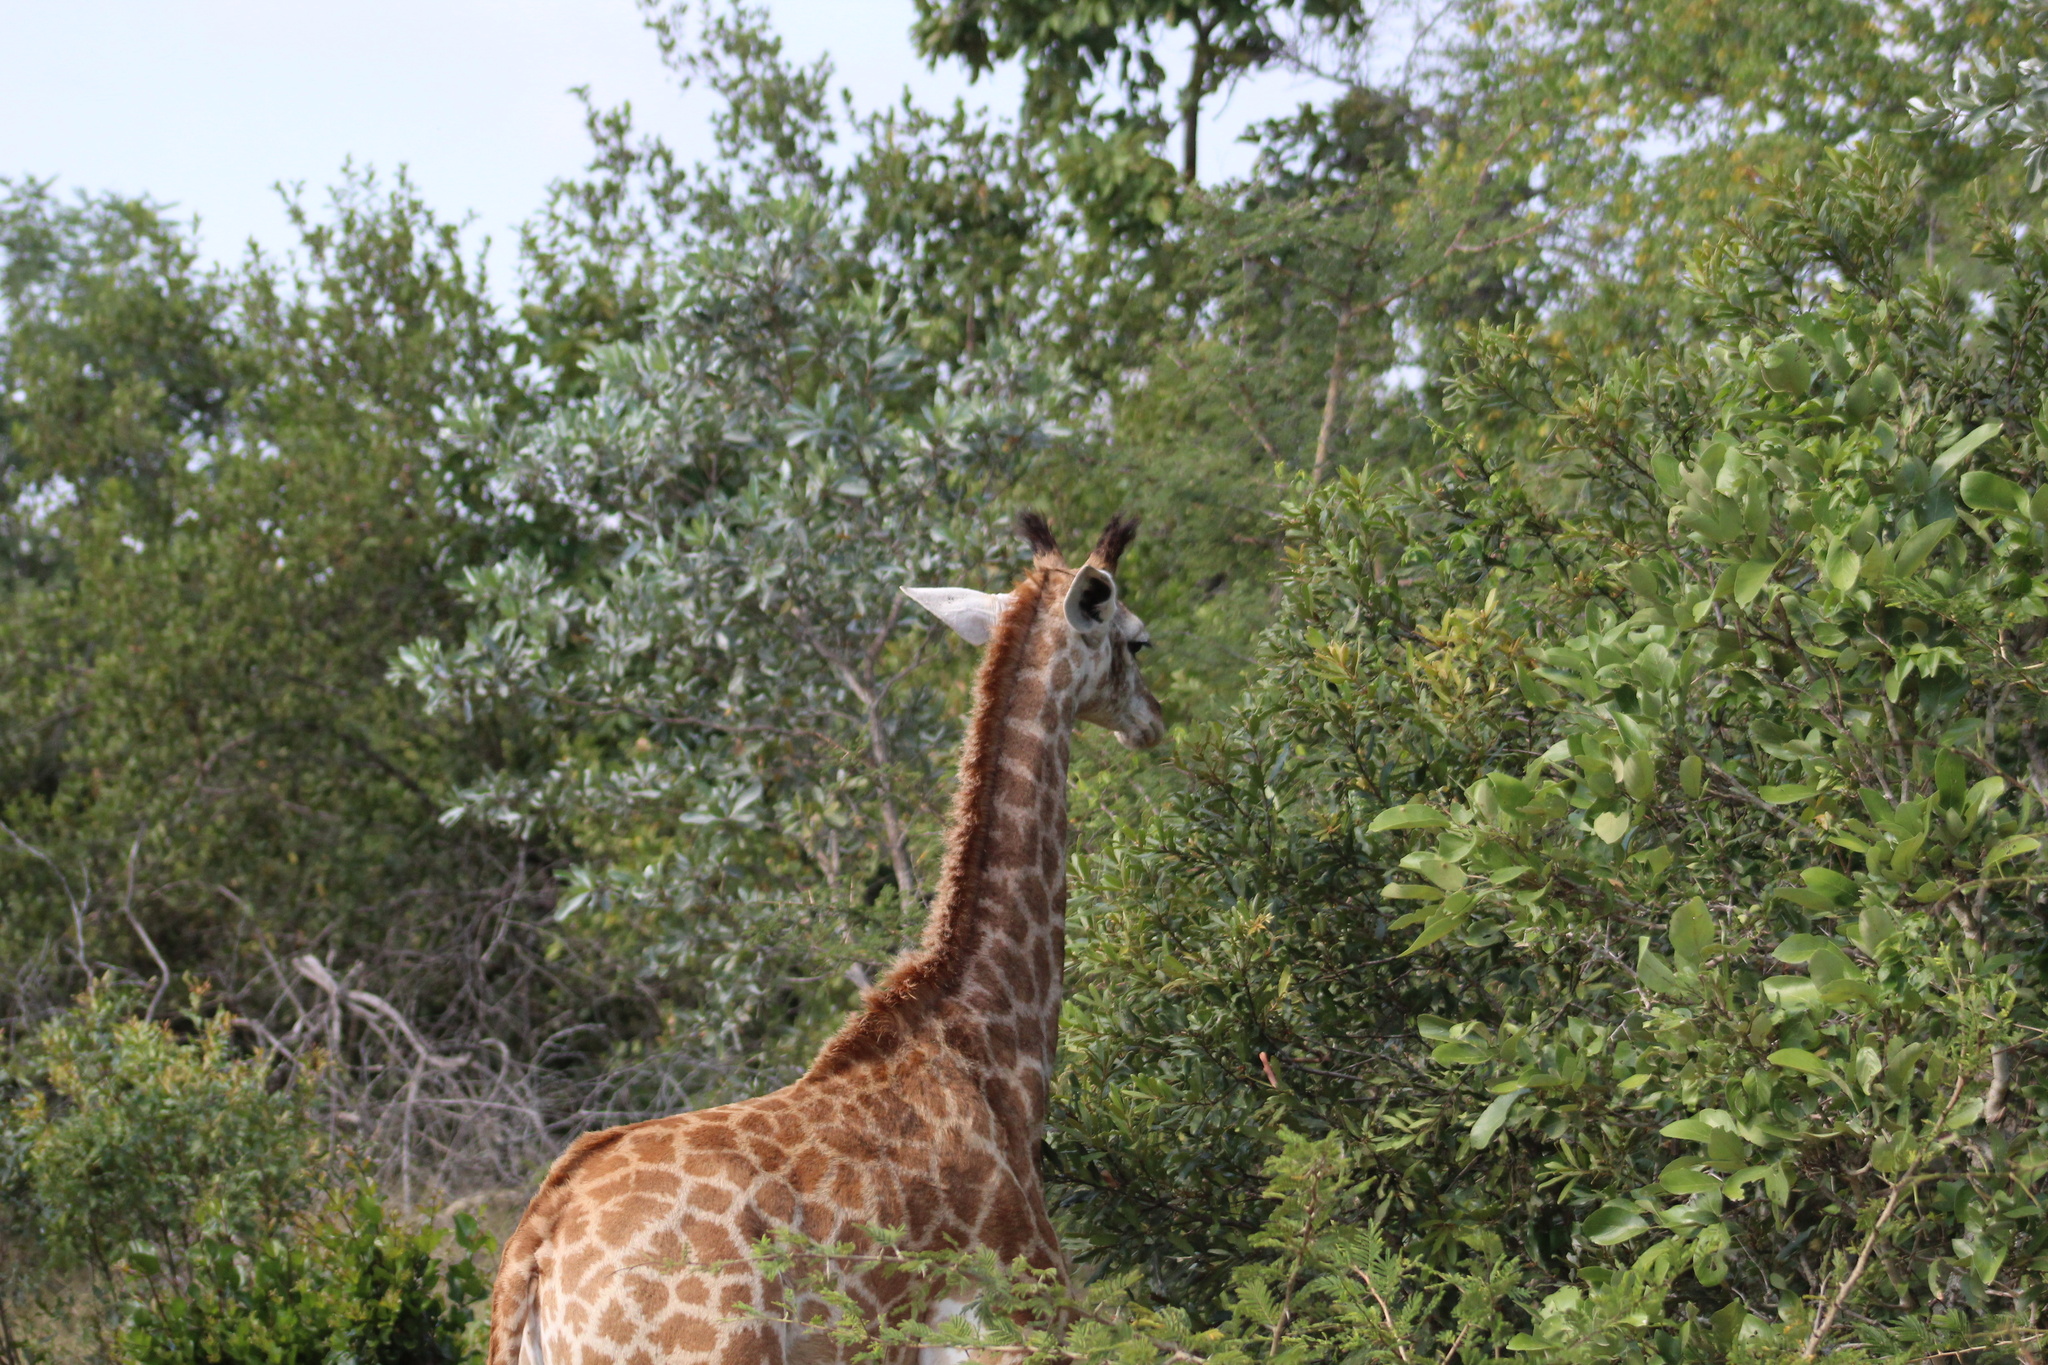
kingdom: Animalia
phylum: Chordata
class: Mammalia
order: Artiodactyla
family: Giraffidae
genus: Giraffa
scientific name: Giraffa giraffa
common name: Southern giraffe
